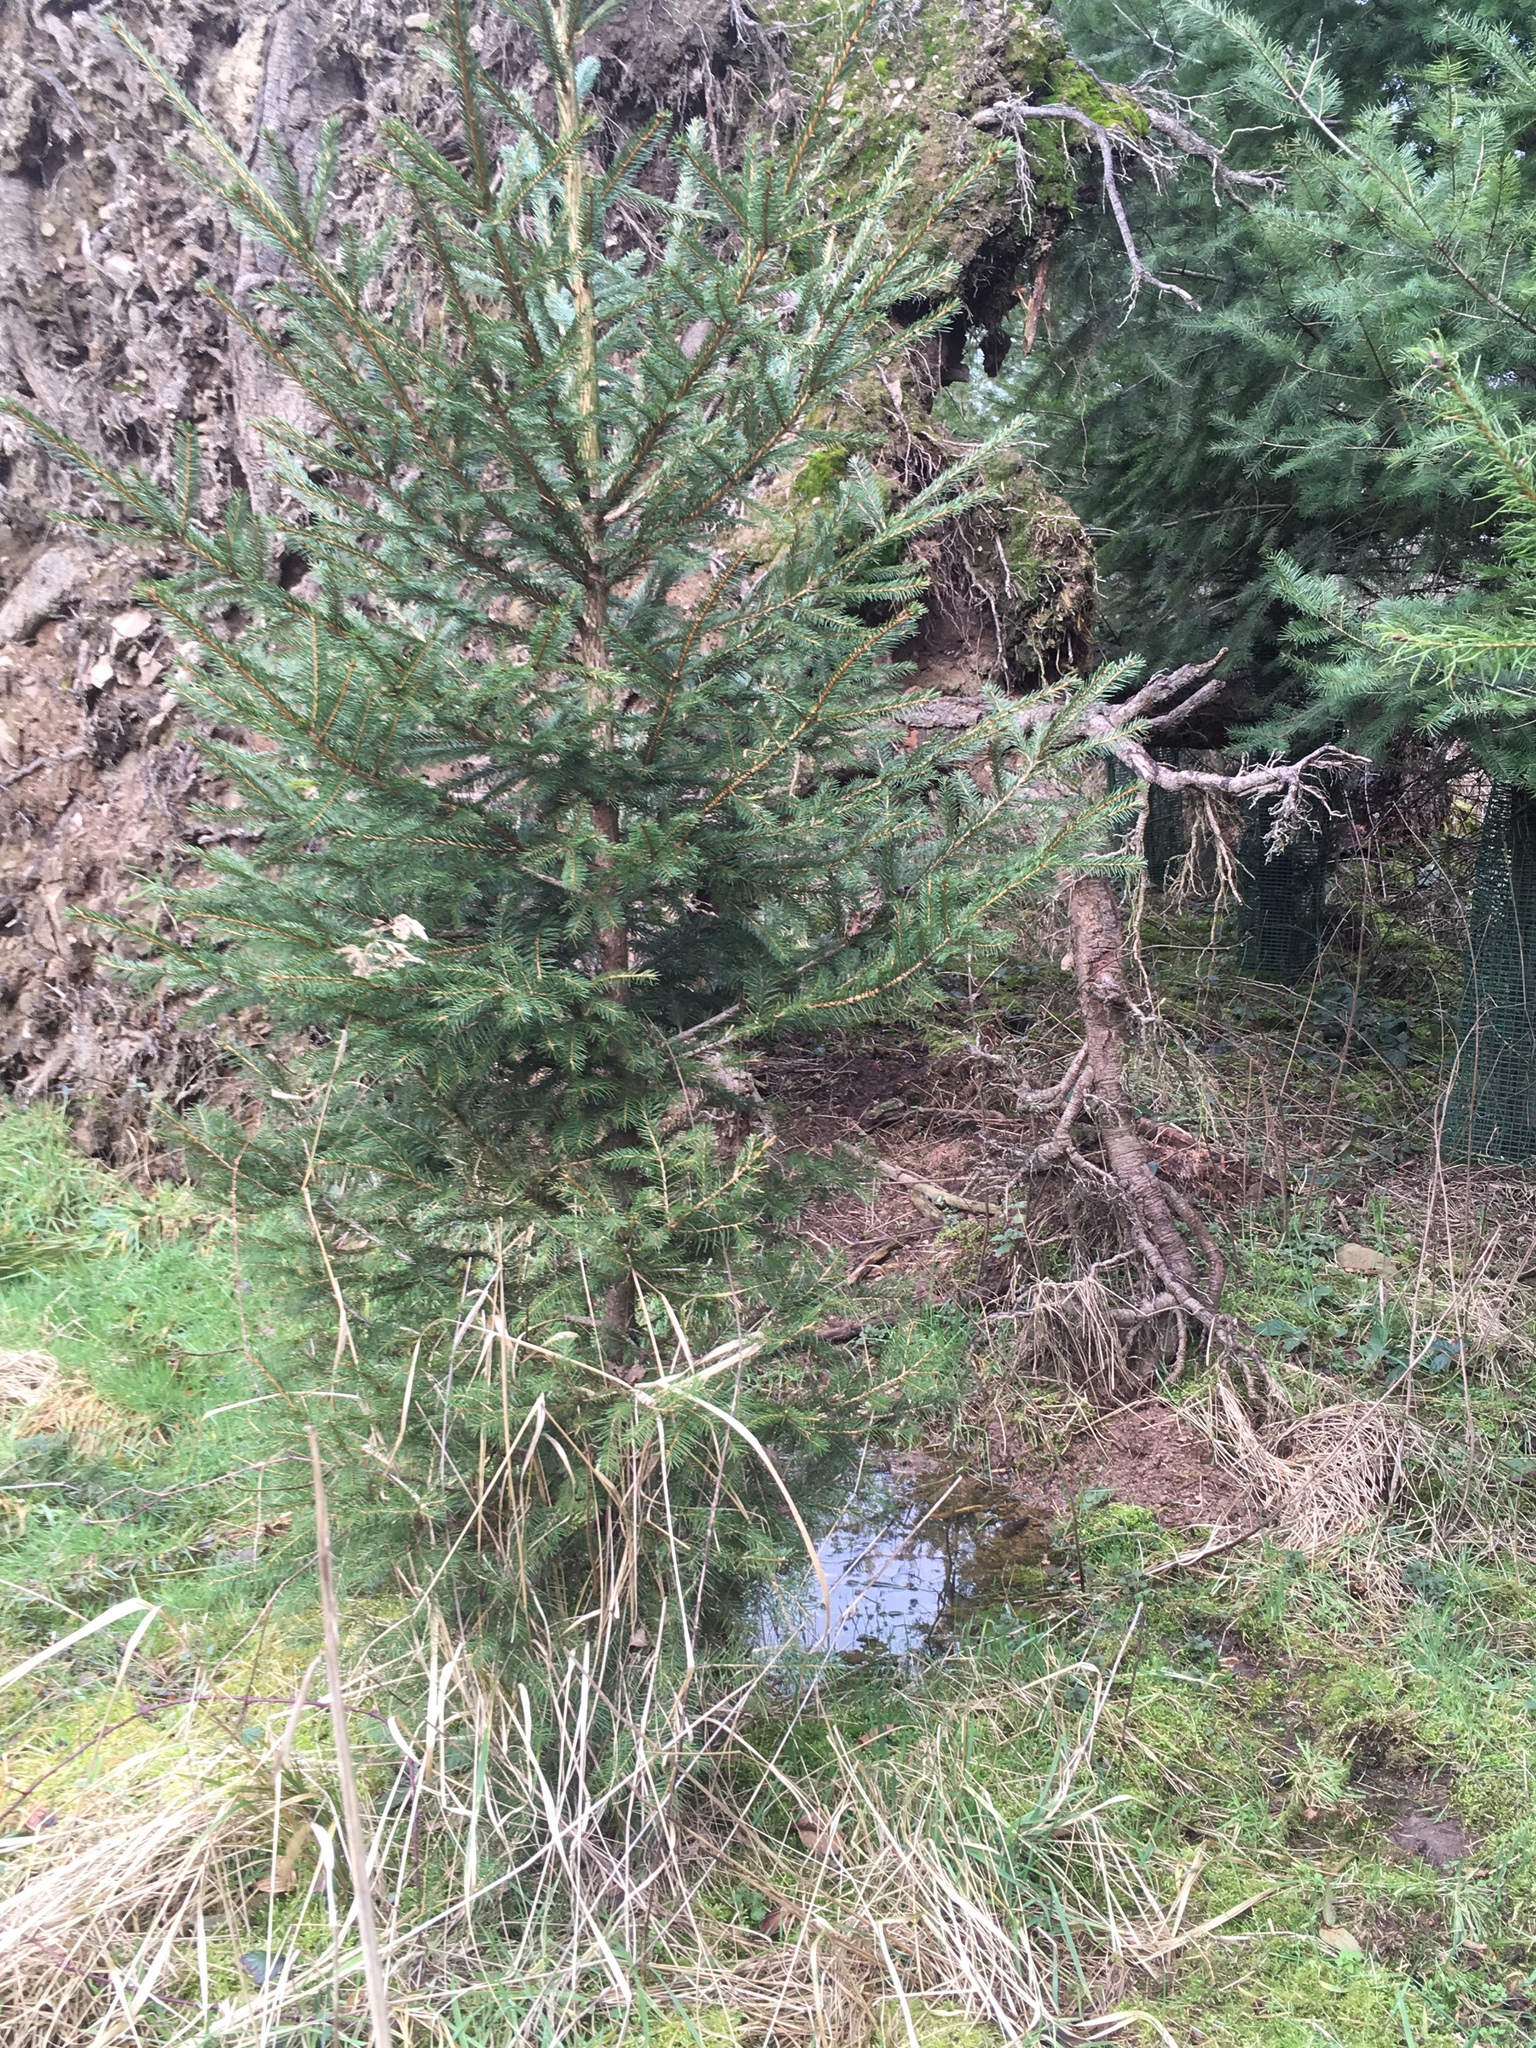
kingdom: Plantae
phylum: Tracheophyta
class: Pinopsida
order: Pinales
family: Pinaceae
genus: Picea
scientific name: Picea abies
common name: Norway spruce
